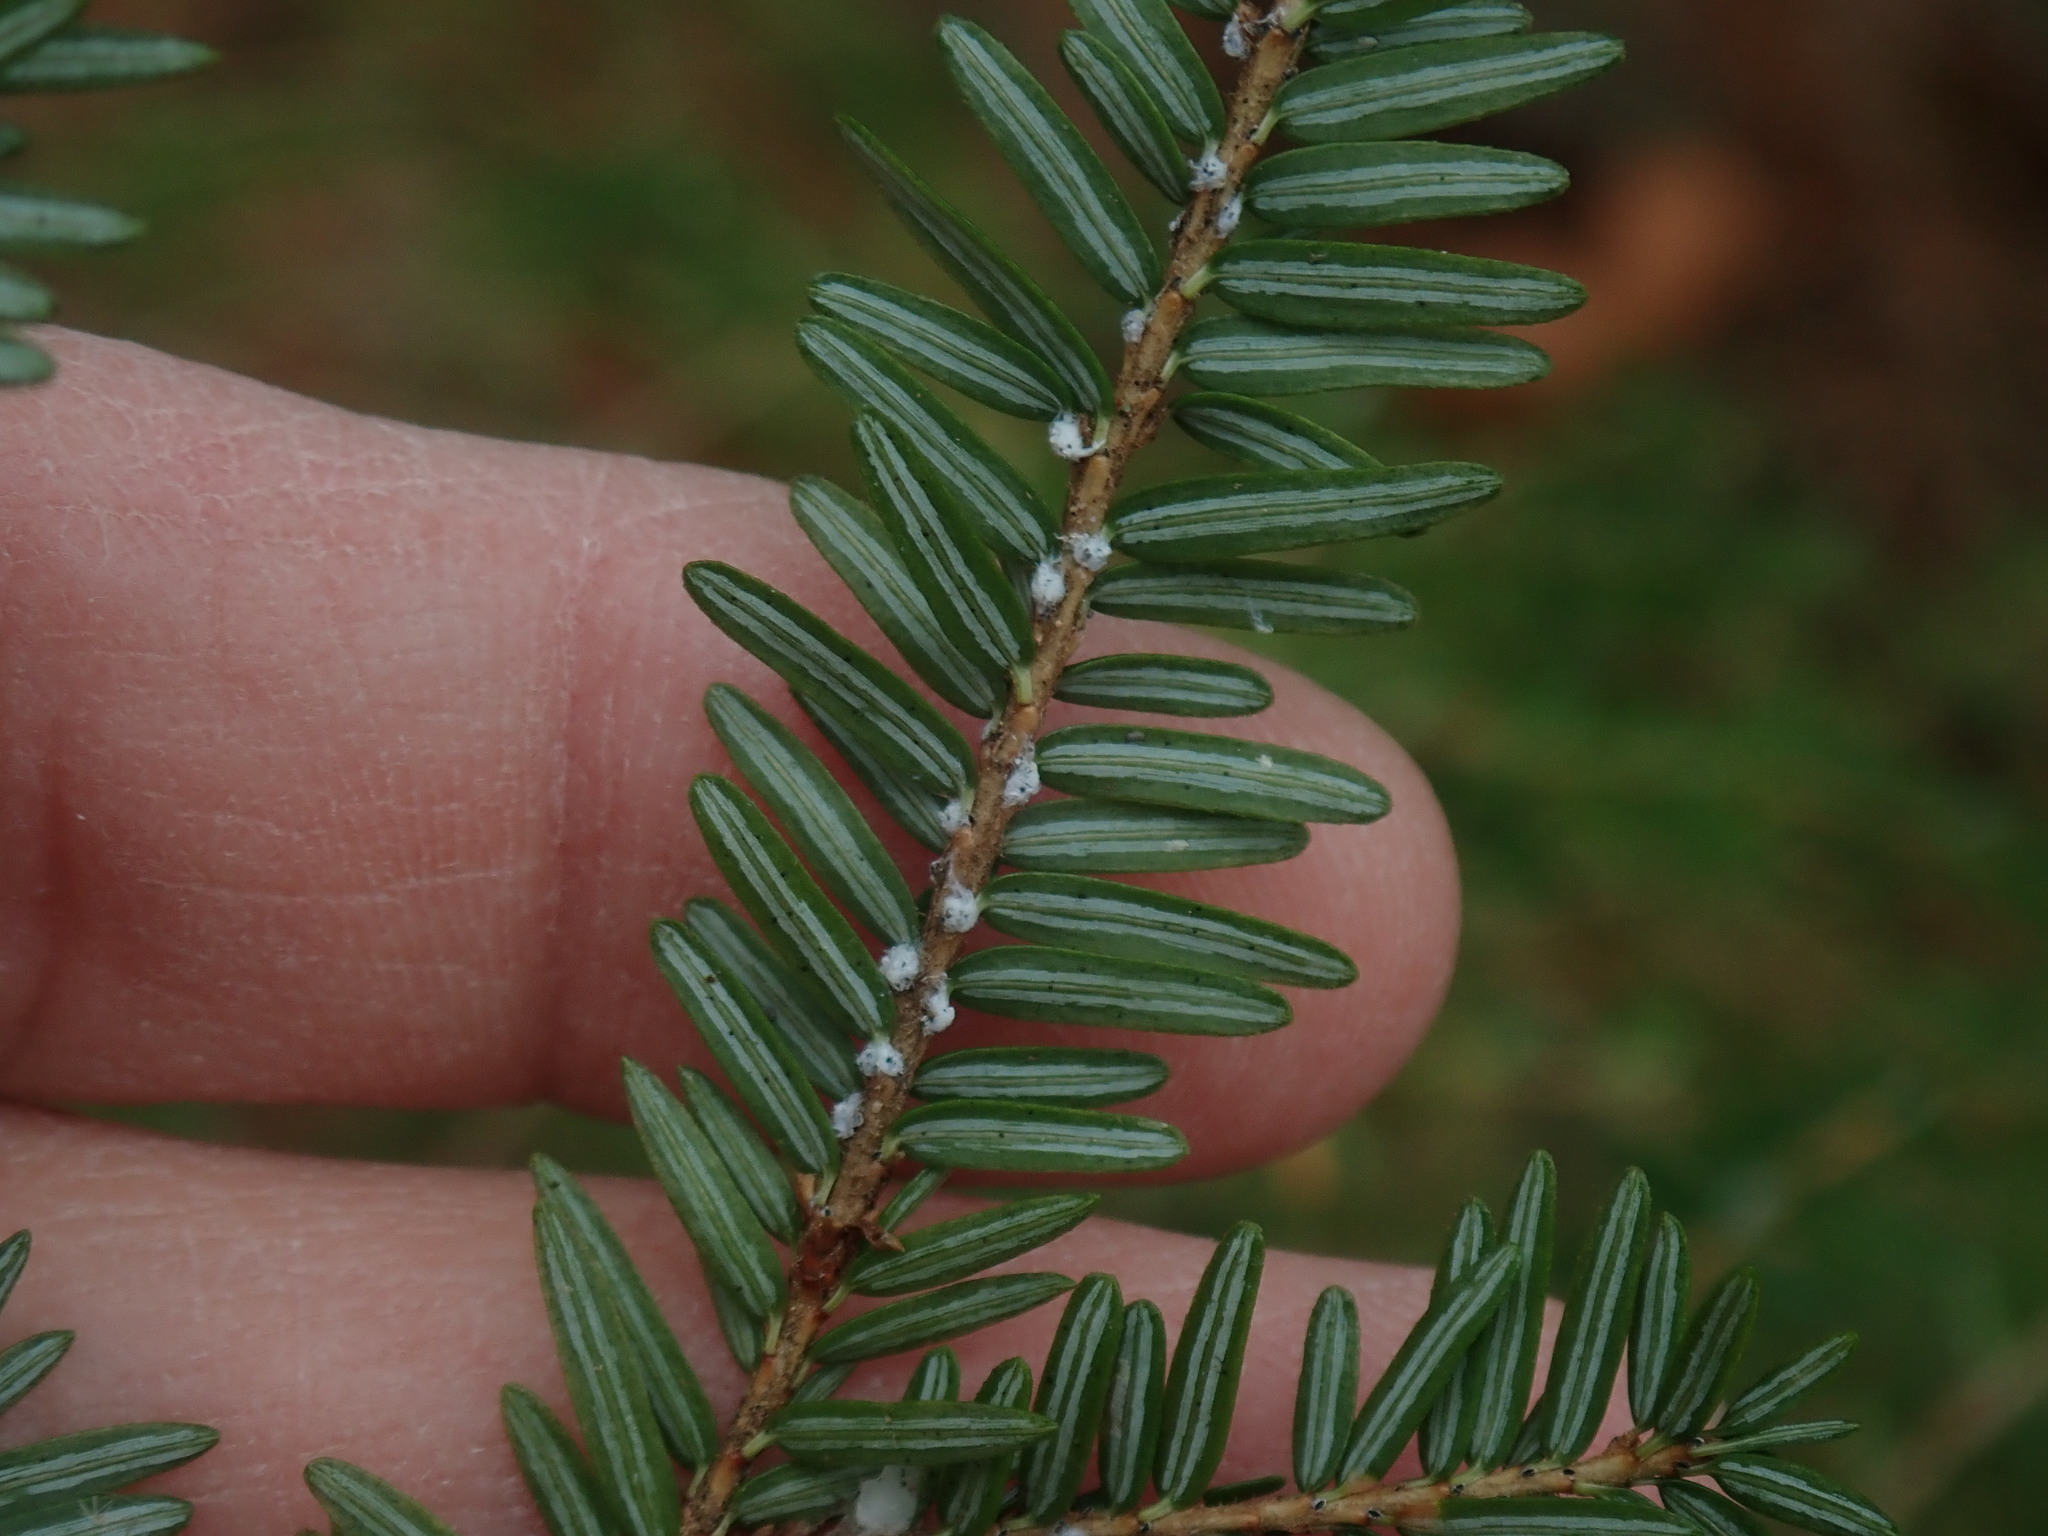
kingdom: Animalia
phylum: Arthropoda
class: Insecta
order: Hemiptera
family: Adelgidae
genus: Adelges
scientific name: Adelges tsugae
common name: Hemlock woolly adelgid
